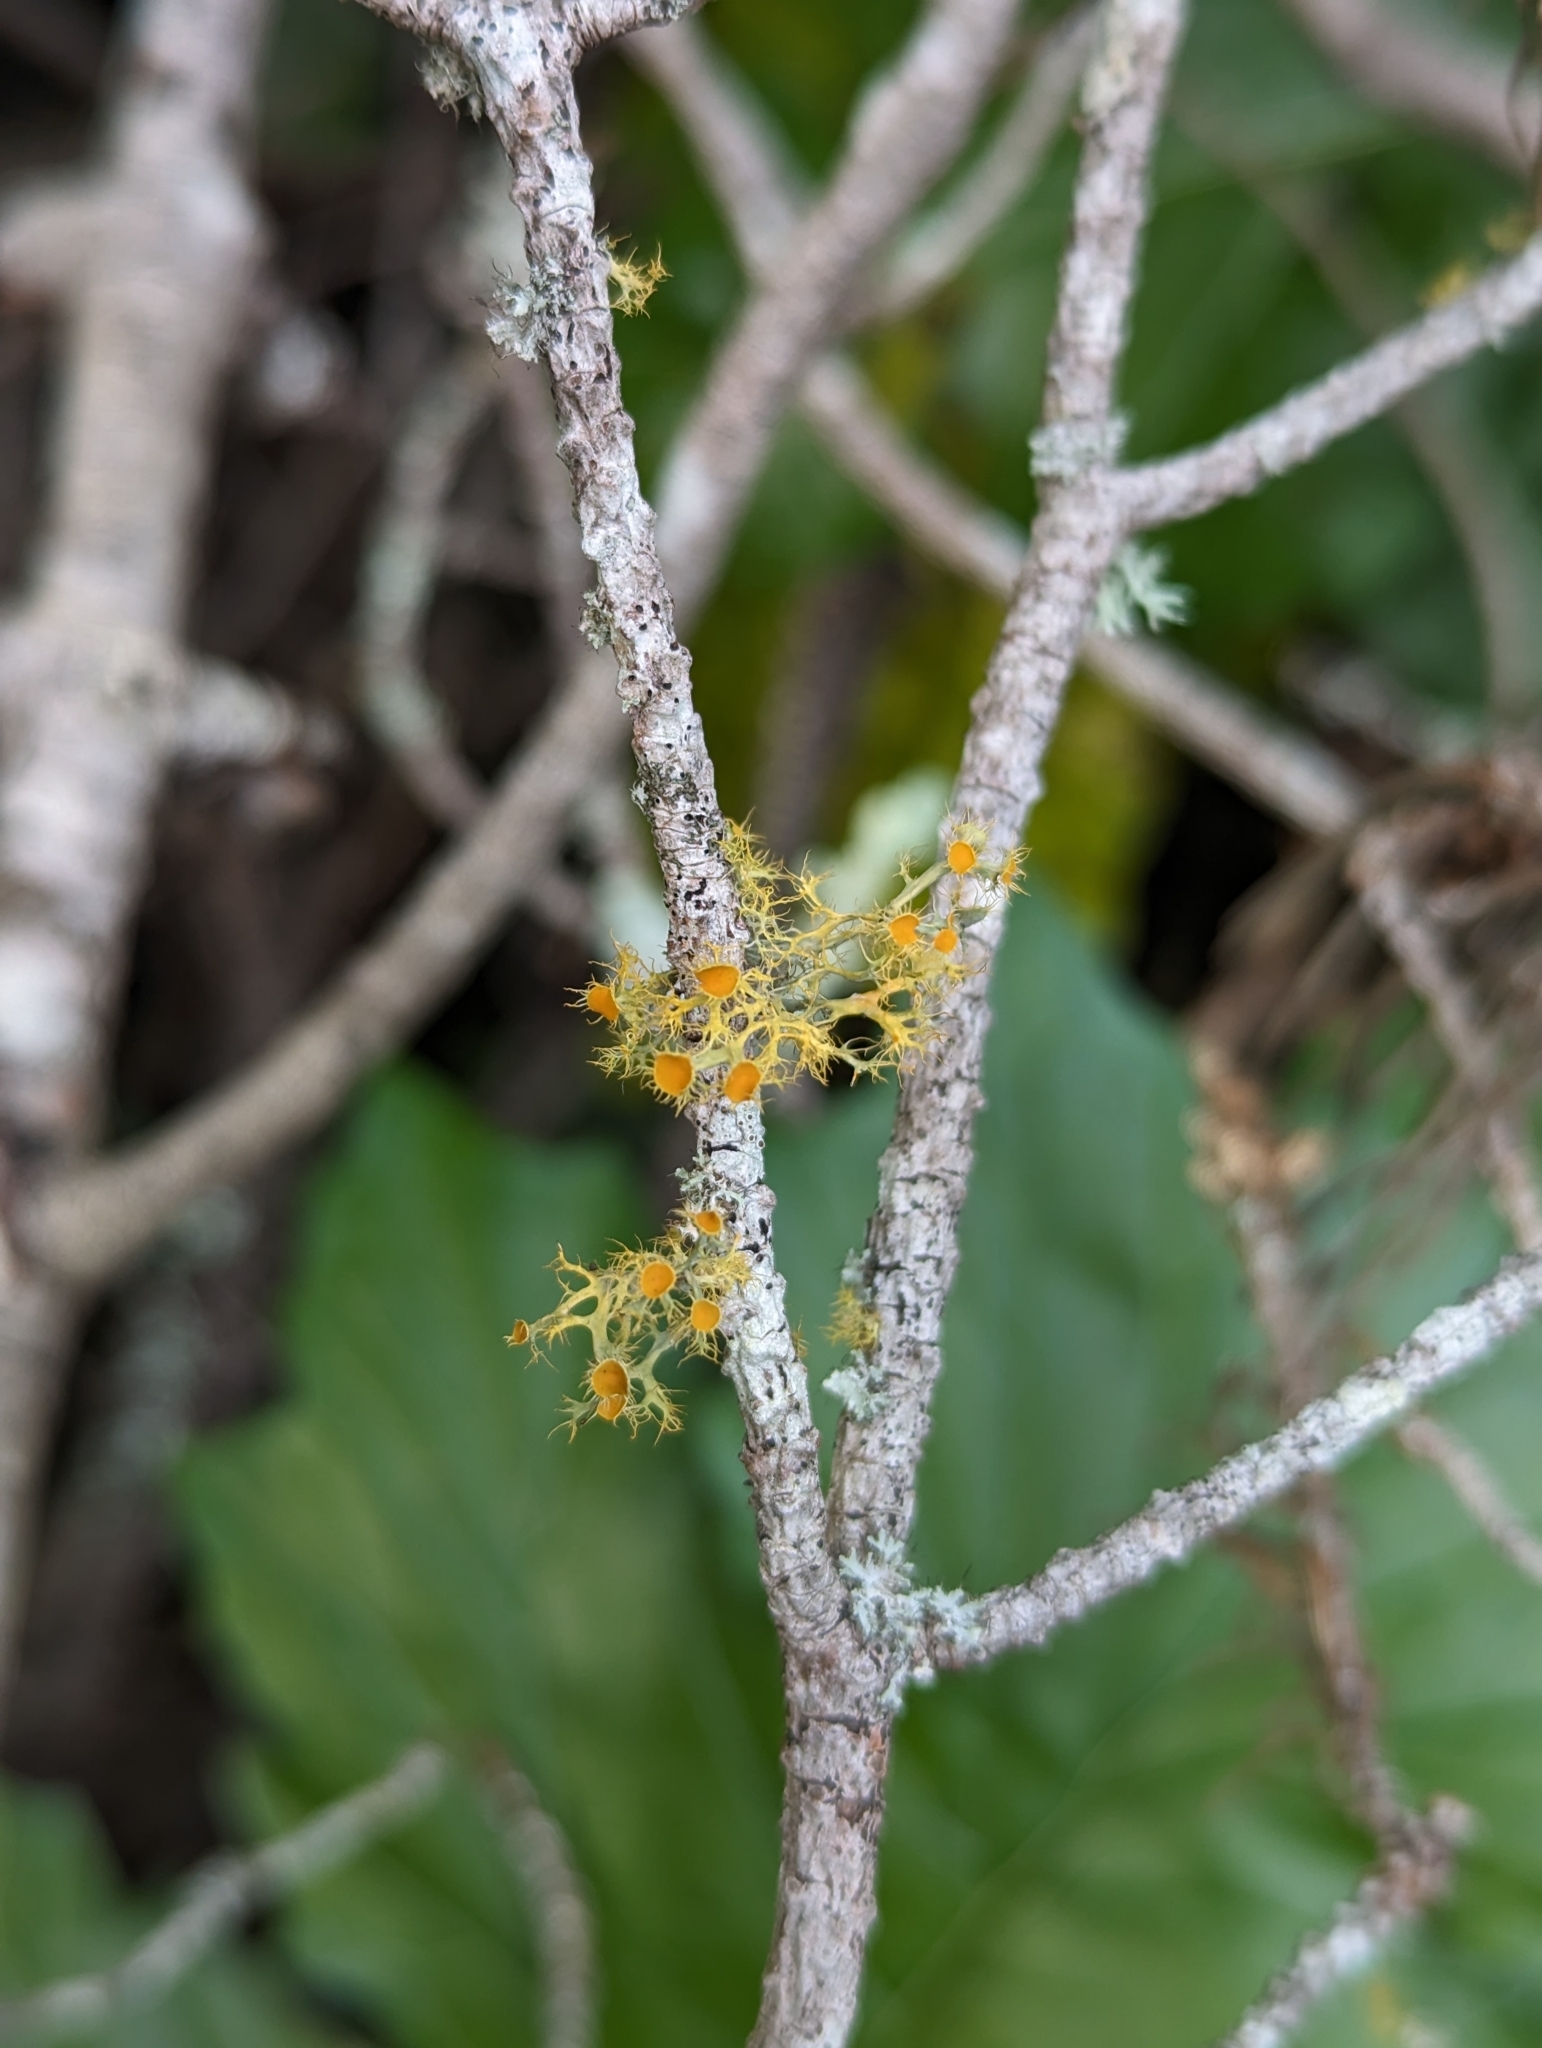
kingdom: Fungi
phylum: Ascomycota
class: Lecanoromycetes
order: Teloschistales
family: Teloschistaceae
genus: Niorma
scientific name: Niorma chrysophthalma
